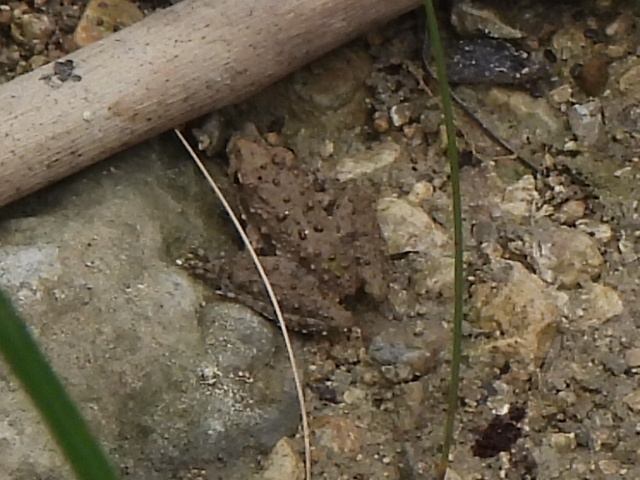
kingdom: Animalia
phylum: Chordata
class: Amphibia
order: Anura
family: Hylidae
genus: Acris
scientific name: Acris blanchardi
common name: Blanchard's cricket frog
